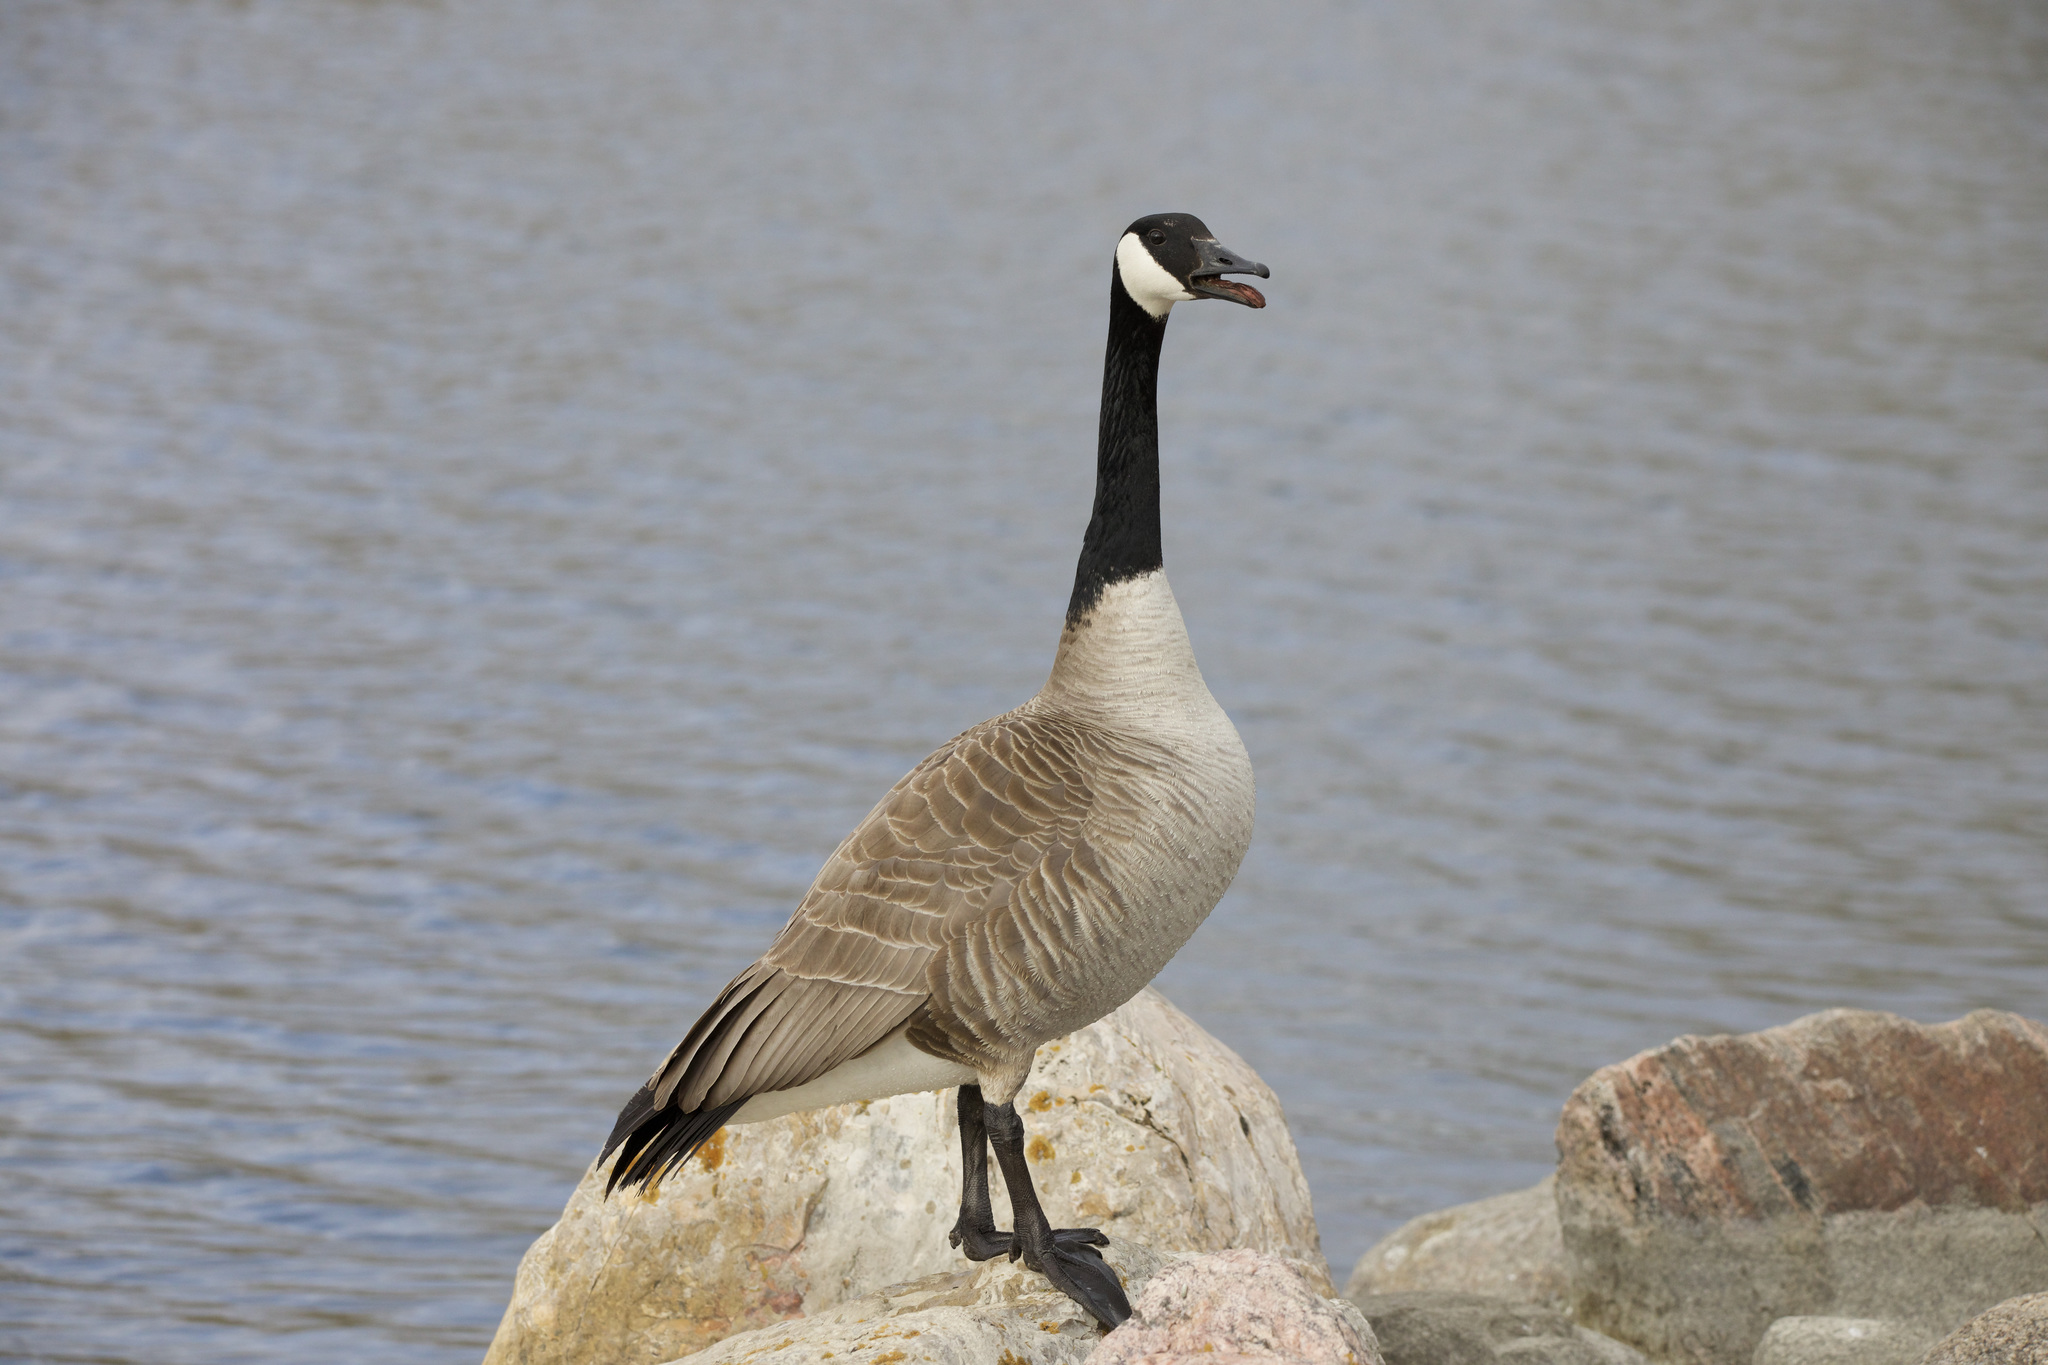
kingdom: Animalia
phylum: Chordata
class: Aves
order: Anseriformes
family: Anatidae
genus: Branta
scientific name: Branta canadensis
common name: Canada goose
